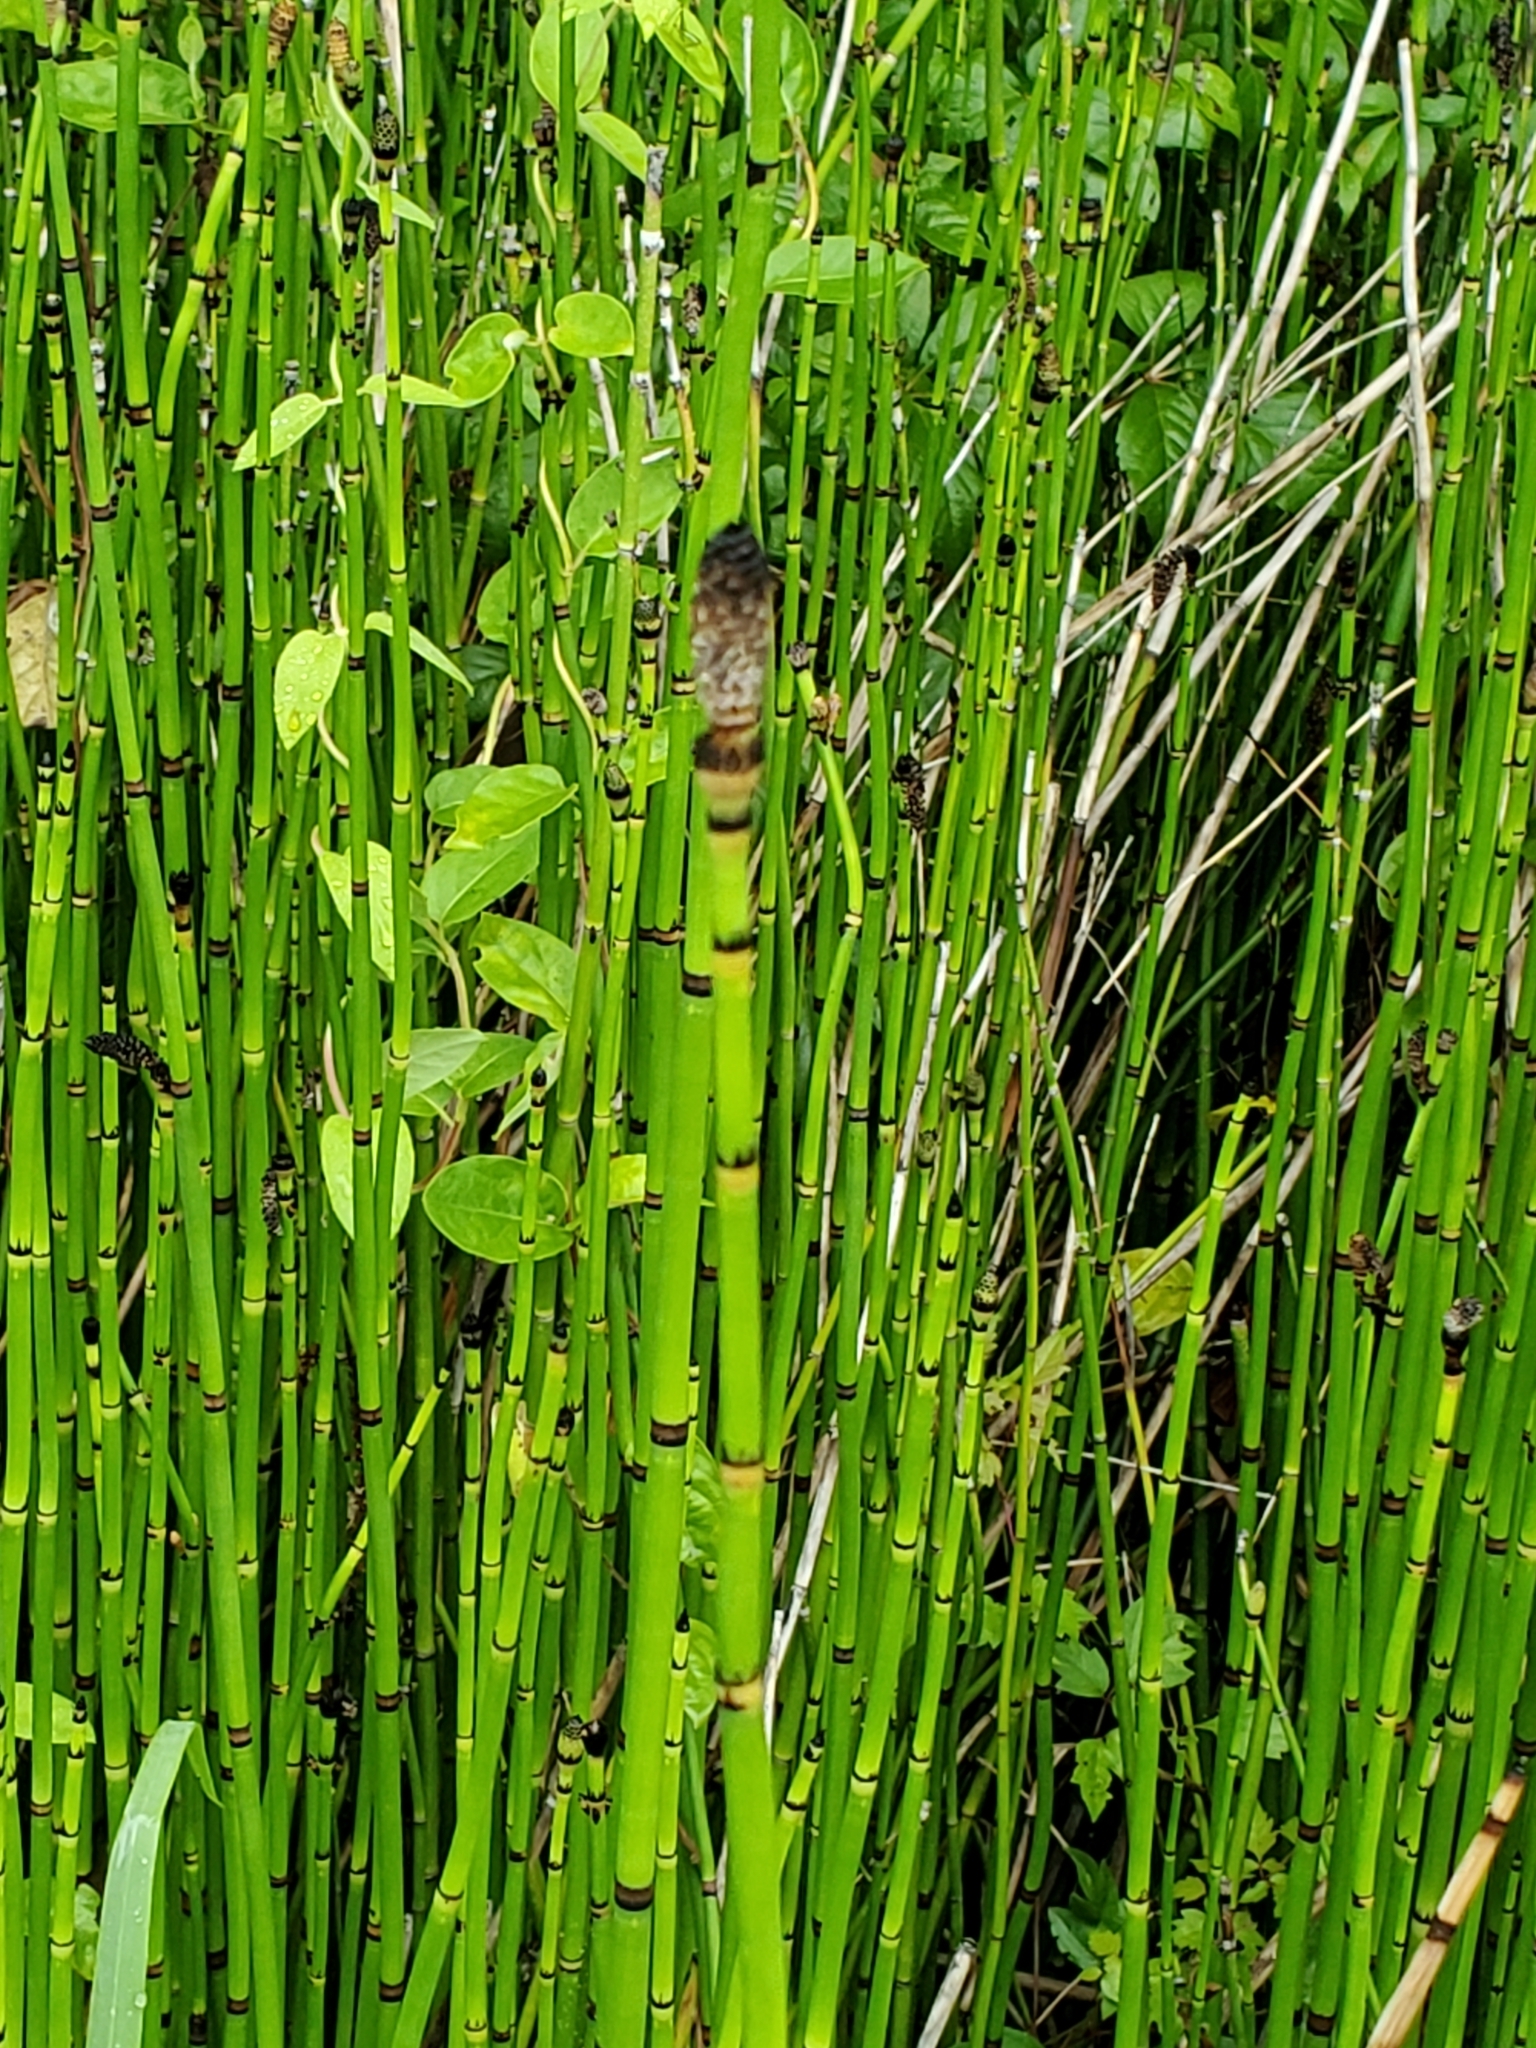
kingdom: Plantae
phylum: Tracheophyta
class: Polypodiopsida
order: Equisetales
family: Equisetaceae
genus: Equisetum
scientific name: Equisetum hyemale
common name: Rough horsetail
